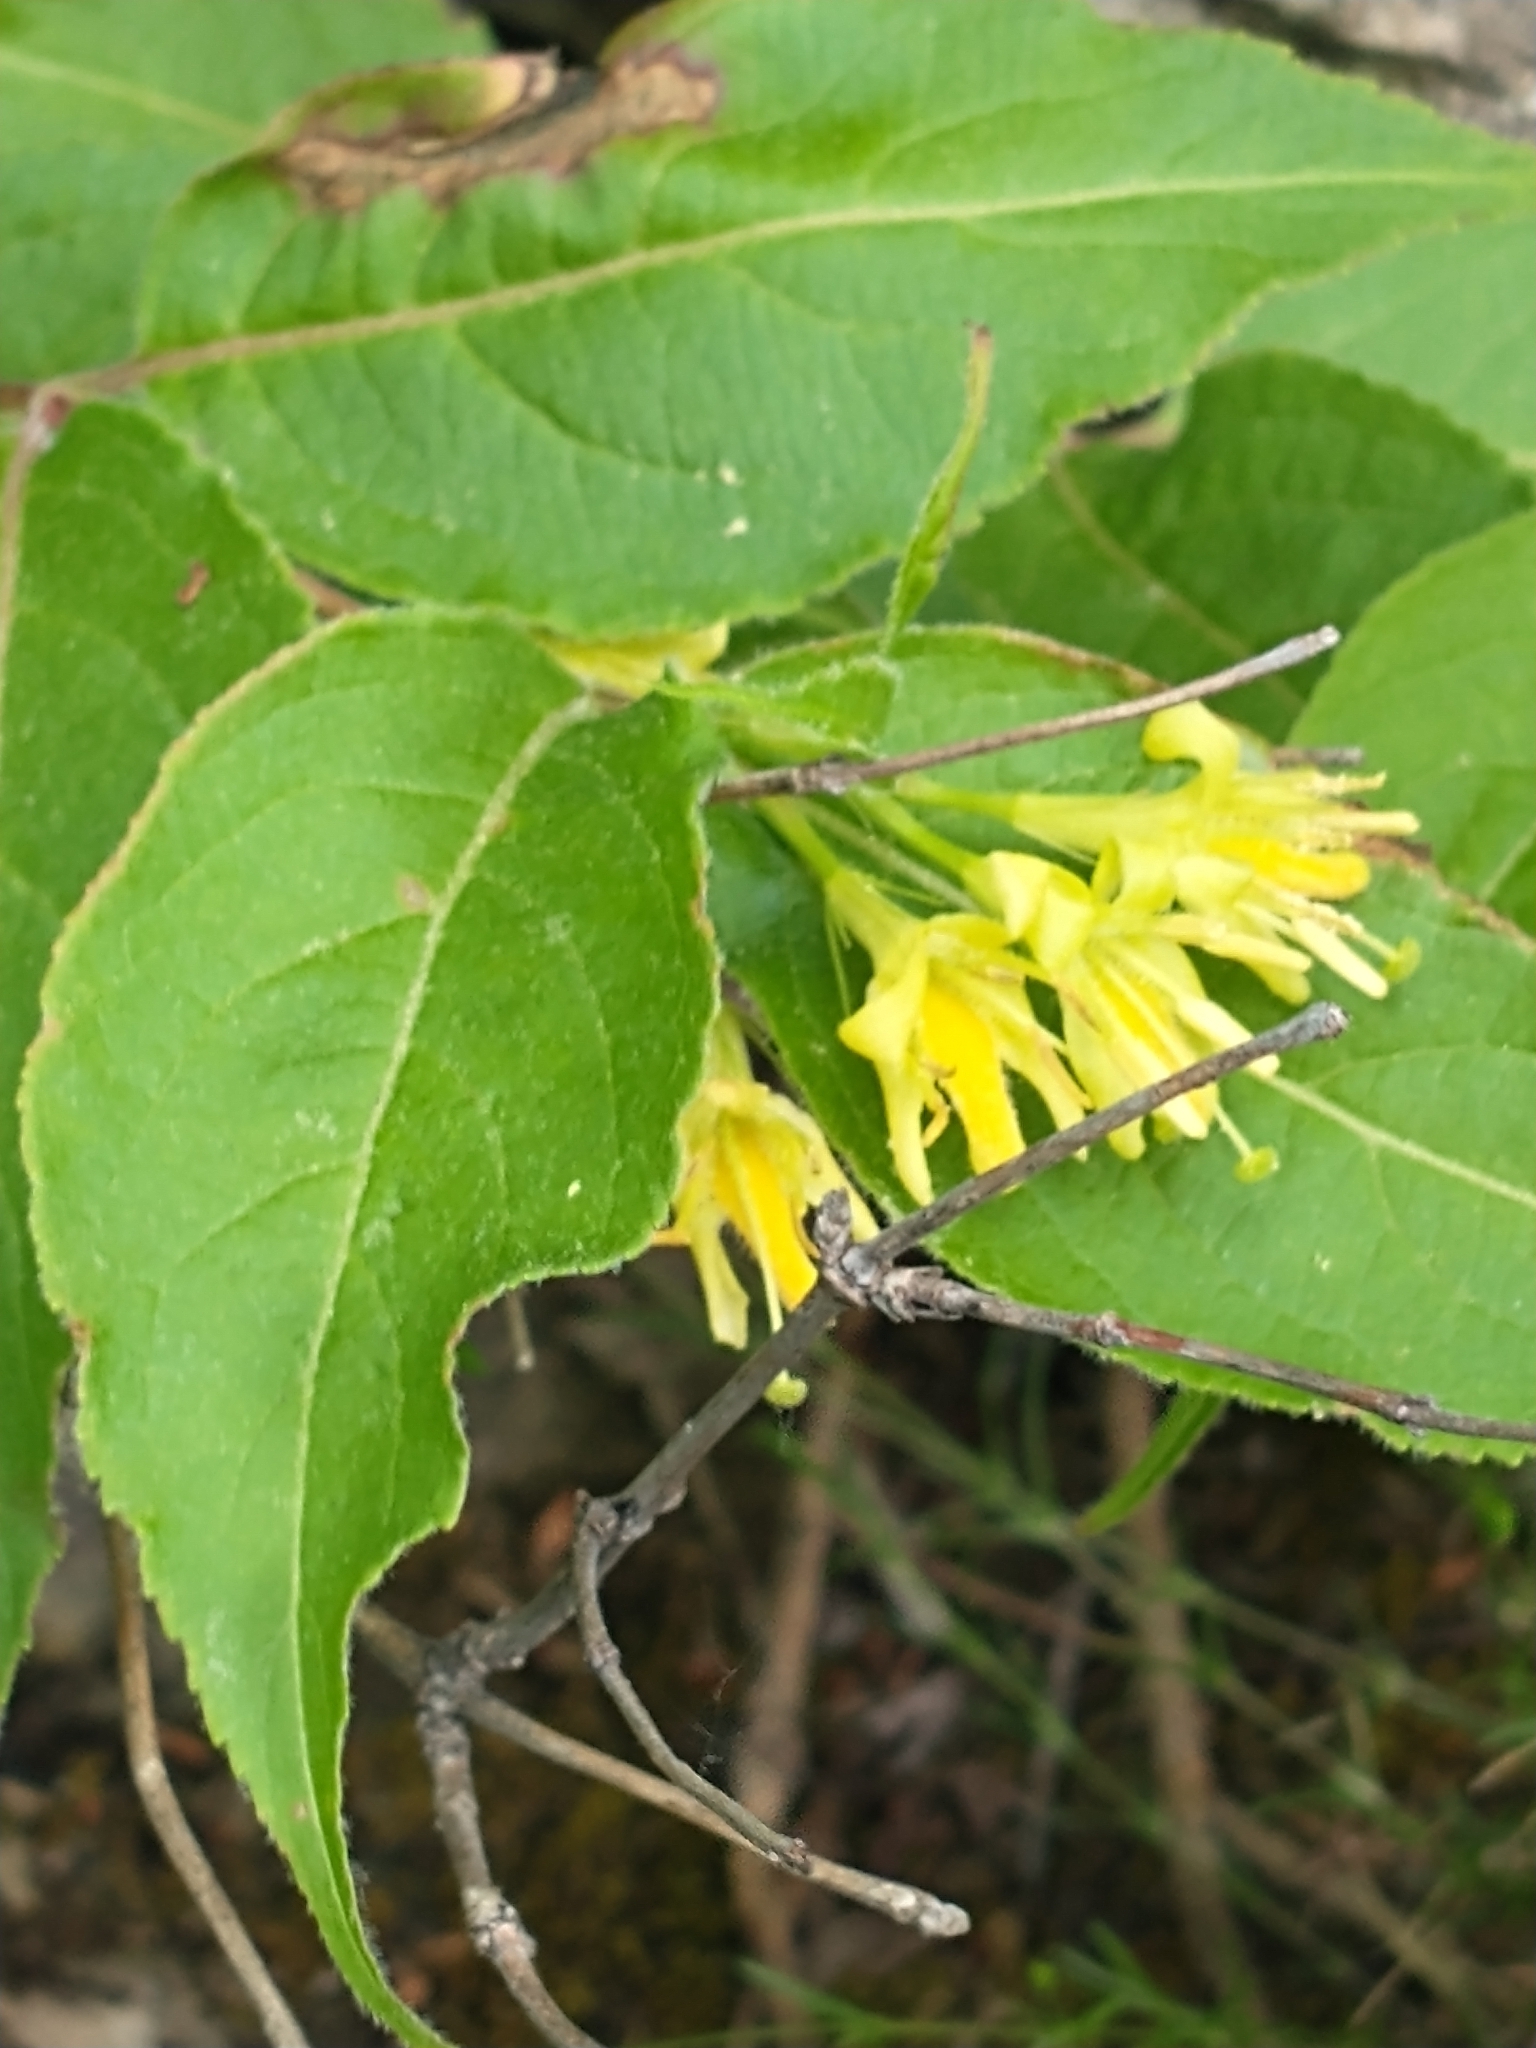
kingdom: Plantae
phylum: Tracheophyta
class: Magnoliopsida
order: Dipsacales
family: Caprifoliaceae
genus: Diervilla
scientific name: Diervilla lonicera
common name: Bush-honeysuckle
